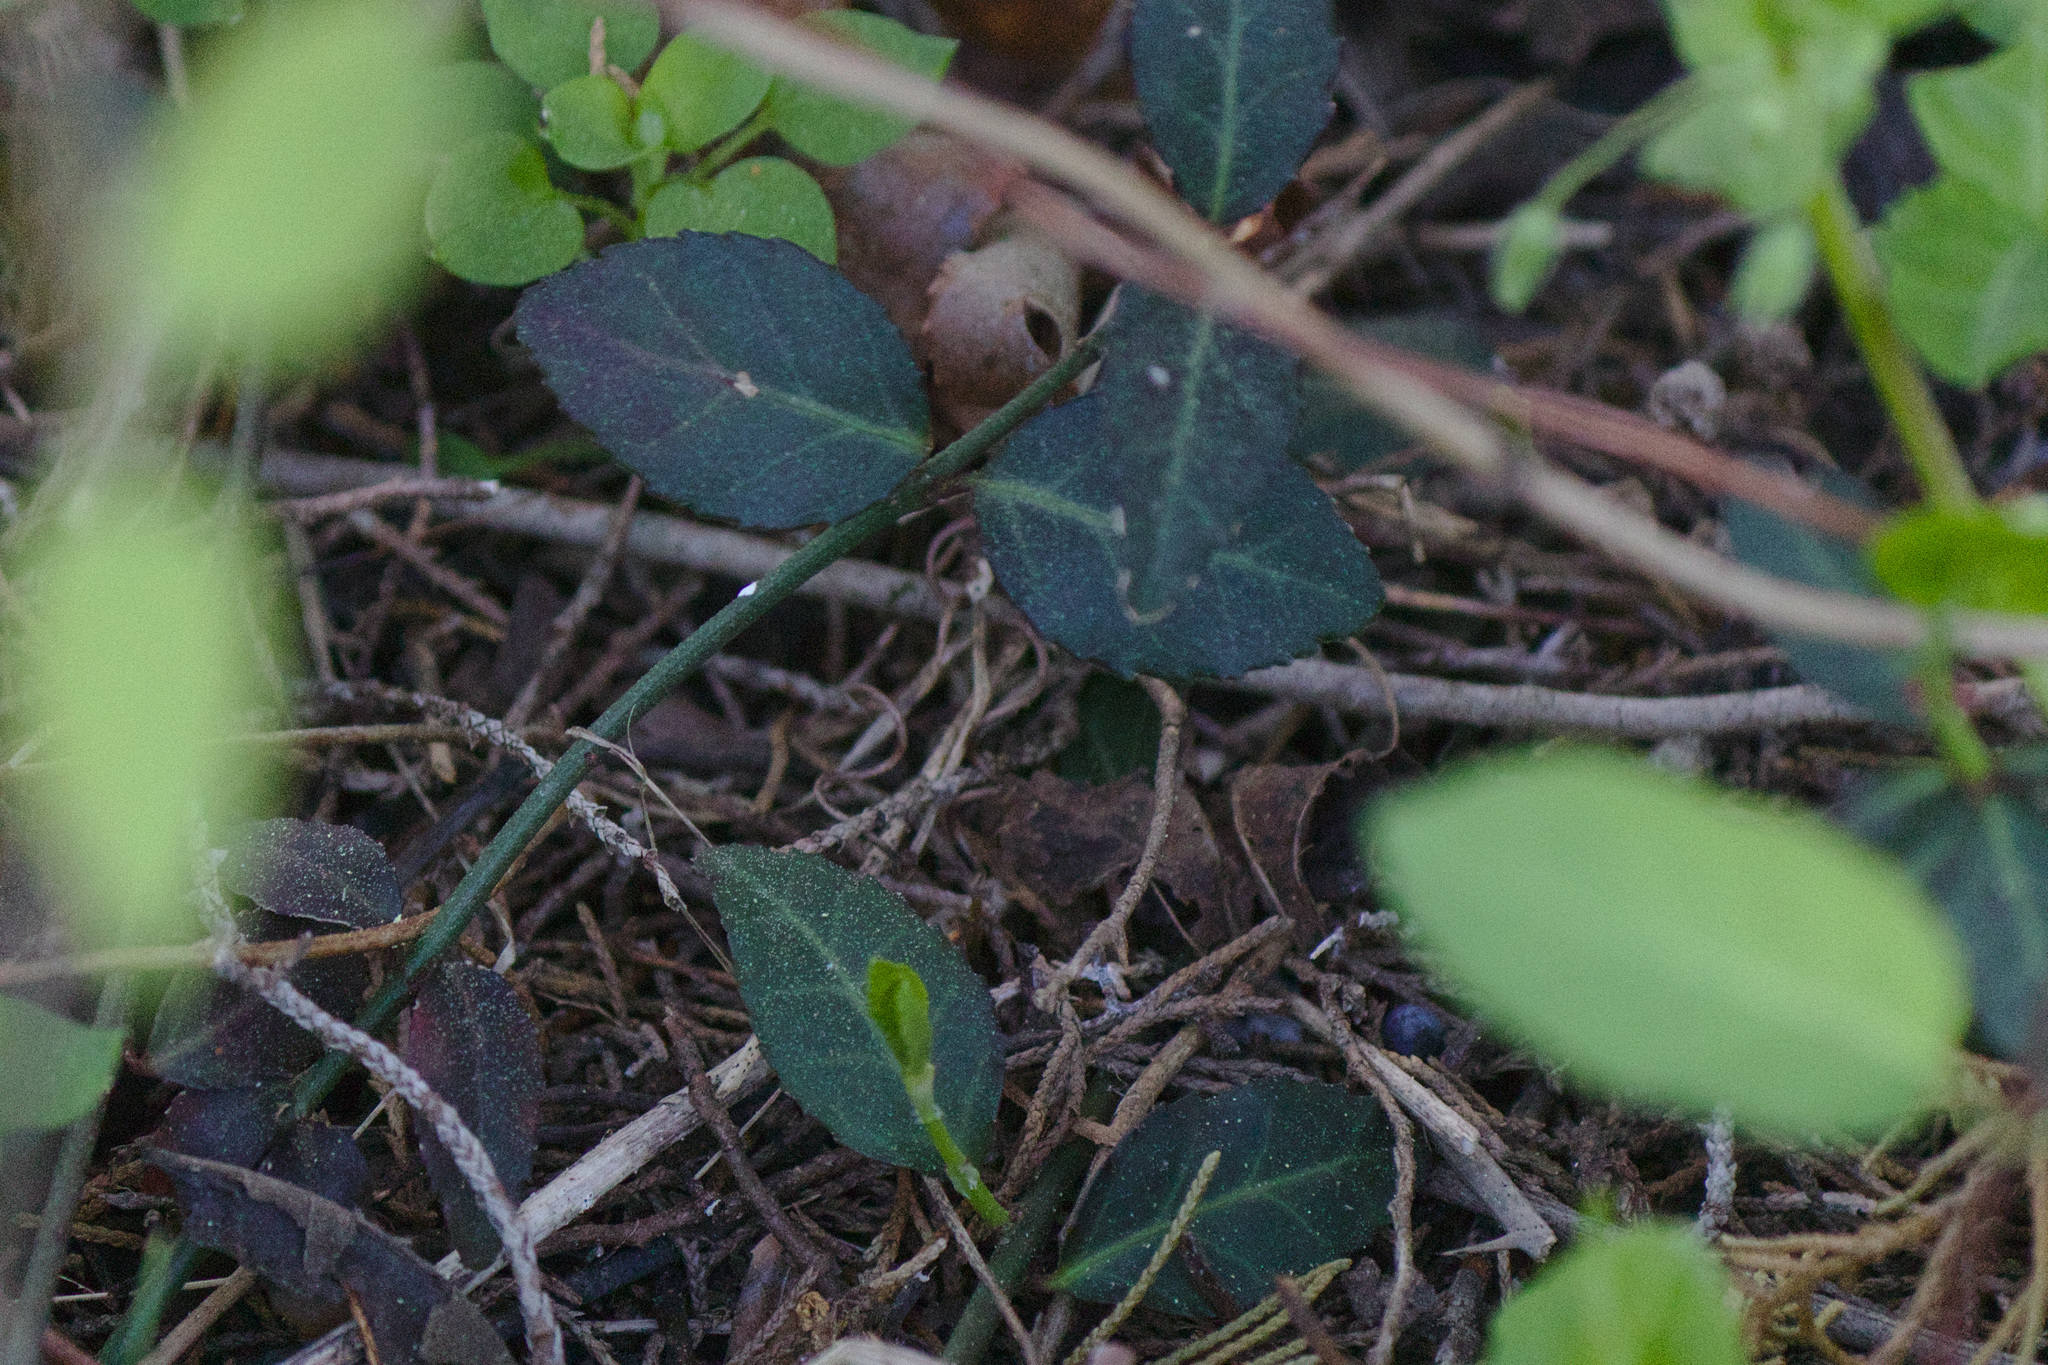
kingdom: Plantae
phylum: Tracheophyta
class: Magnoliopsida
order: Celastrales
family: Celastraceae
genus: Euonymus
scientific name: Euonymus fortunei
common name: Climbing euonymus
